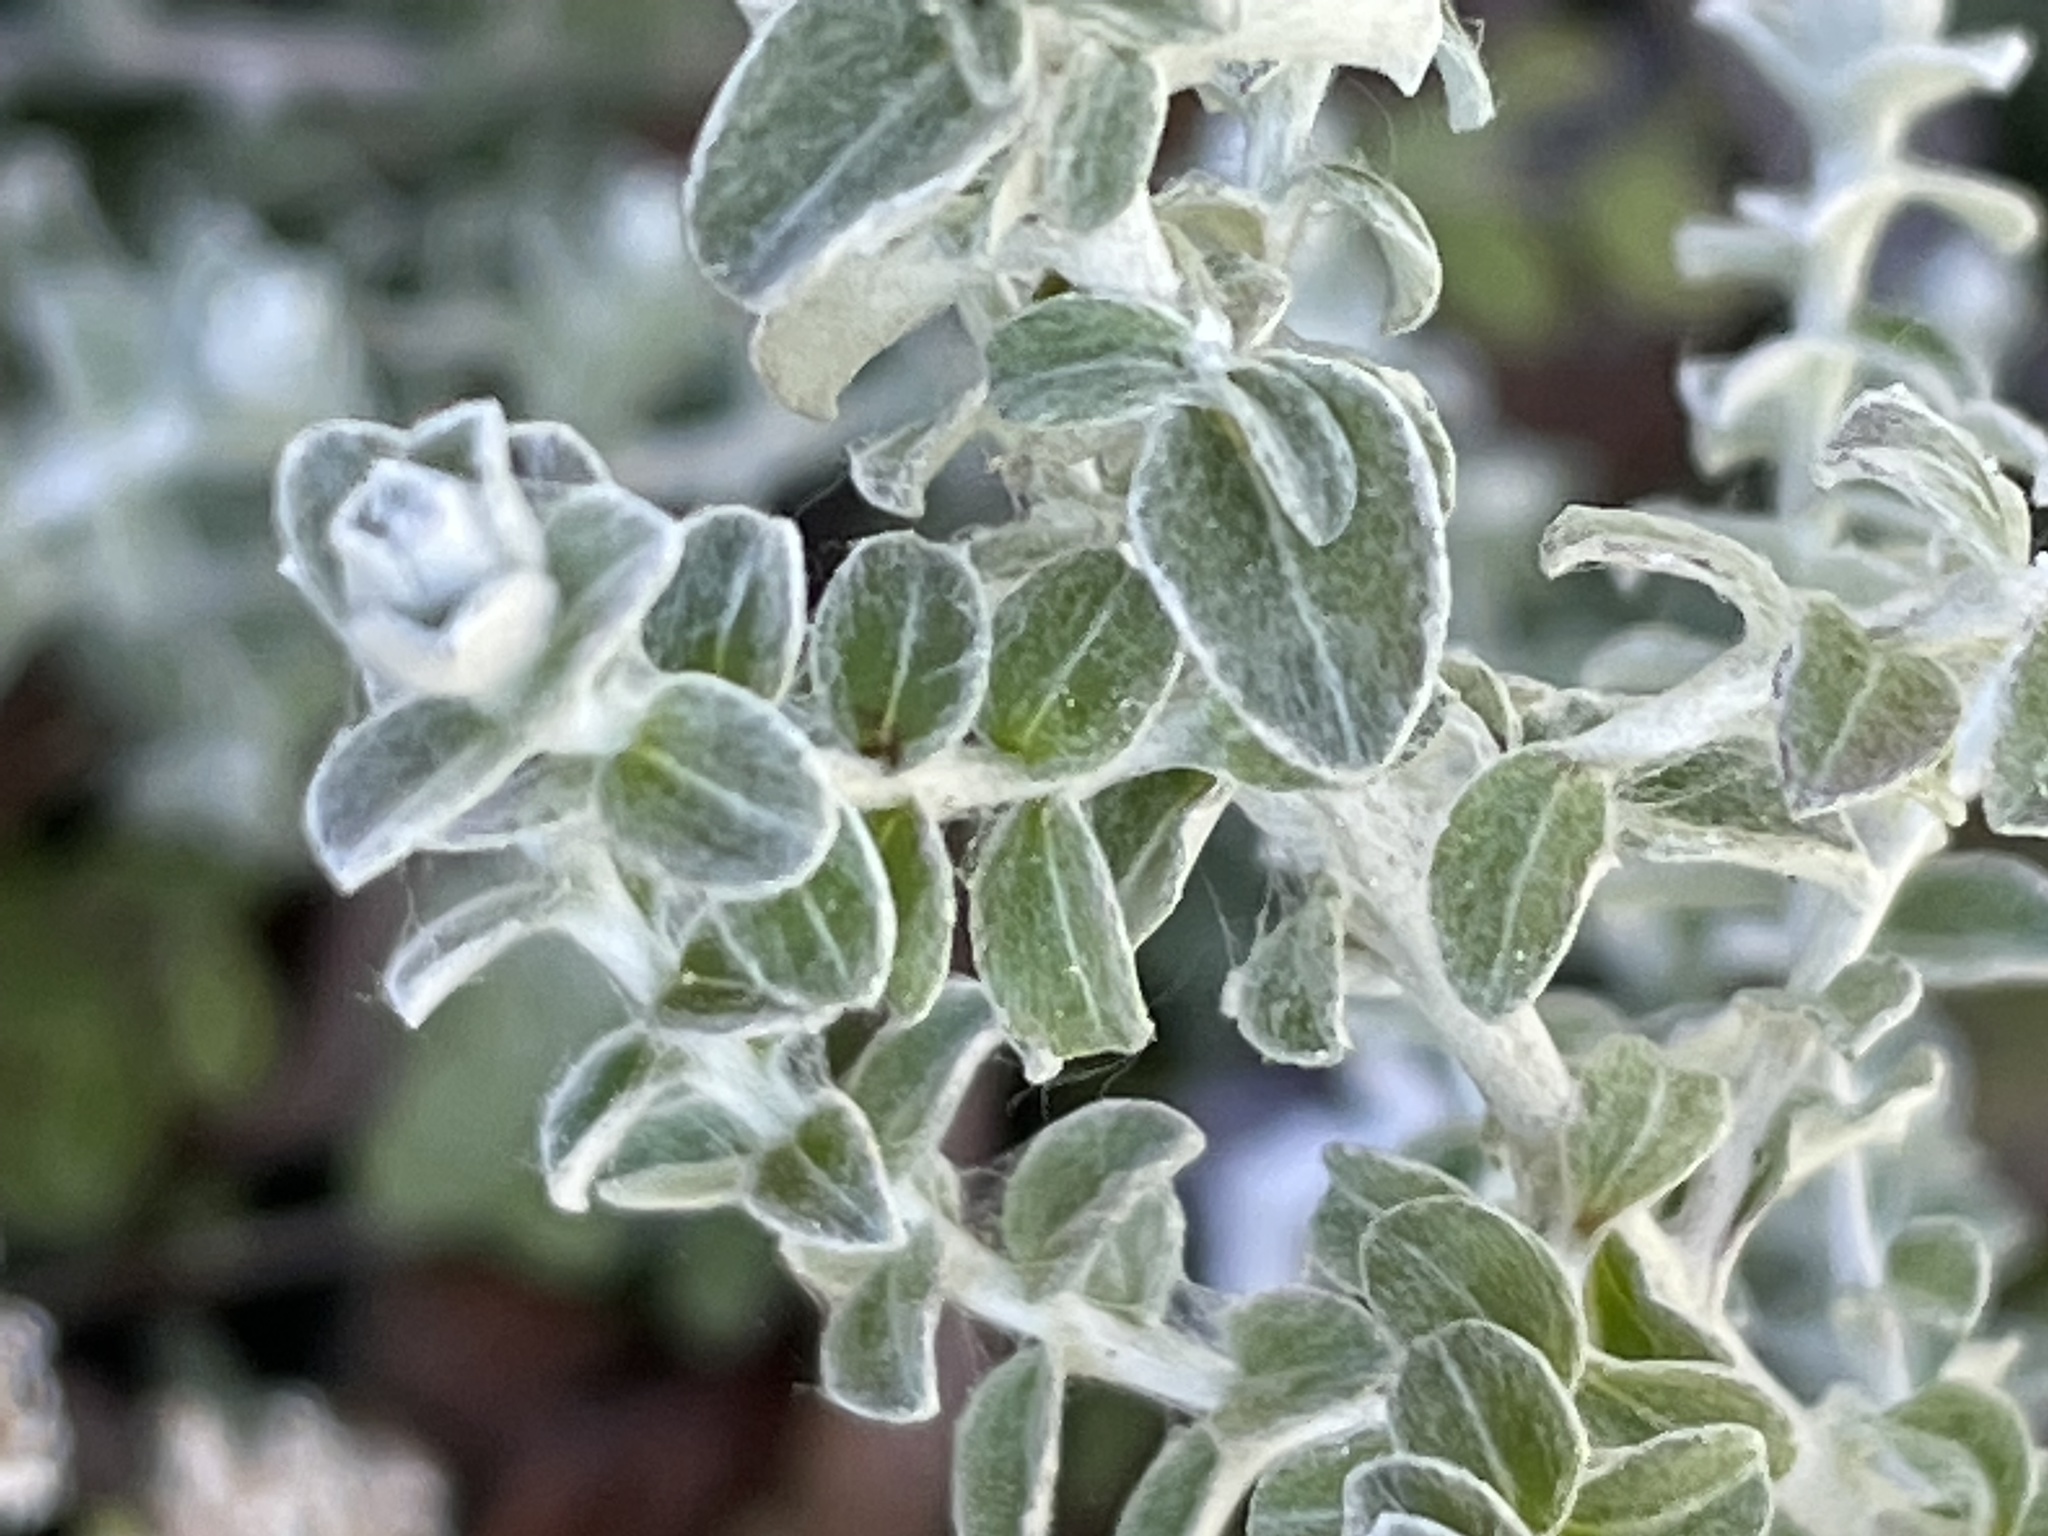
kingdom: Plantae
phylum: Tracheophyta
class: Magnoliopsida
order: Asterales
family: Asteraceae
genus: Plecostachys
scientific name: Plecostachys serpyllifolia
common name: Petite licorice
